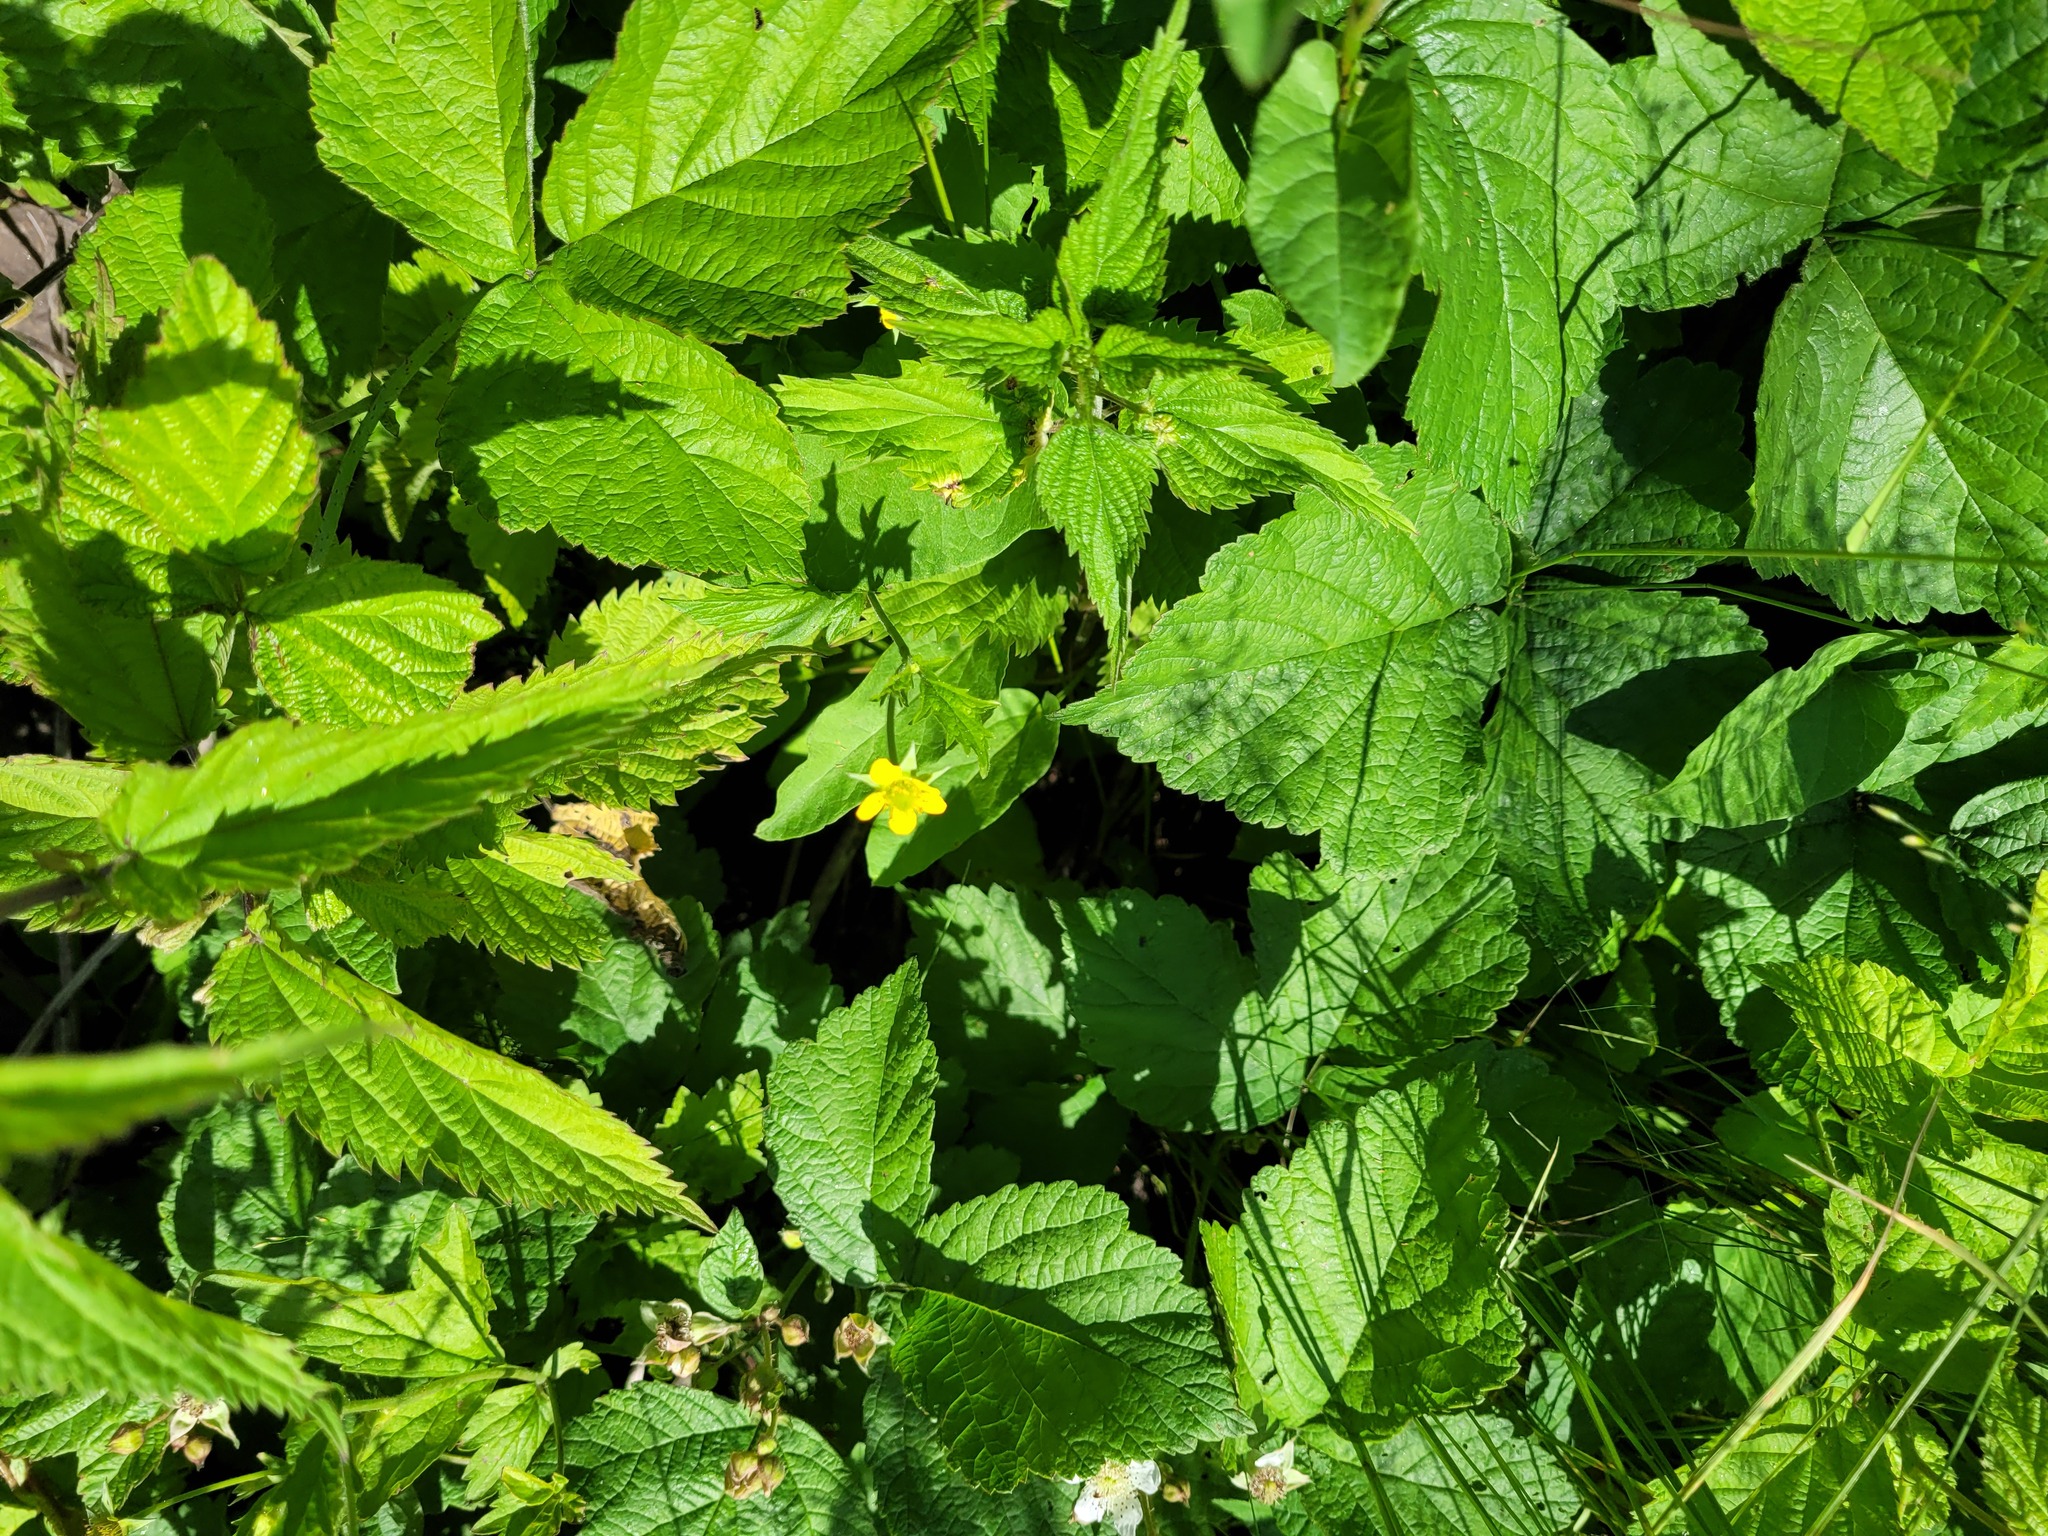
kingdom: Plantae
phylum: Tracheophyta
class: Magnoliopsida
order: Rosales
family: Rosaceae
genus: Geum
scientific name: Geum urbanum
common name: Wood avens
